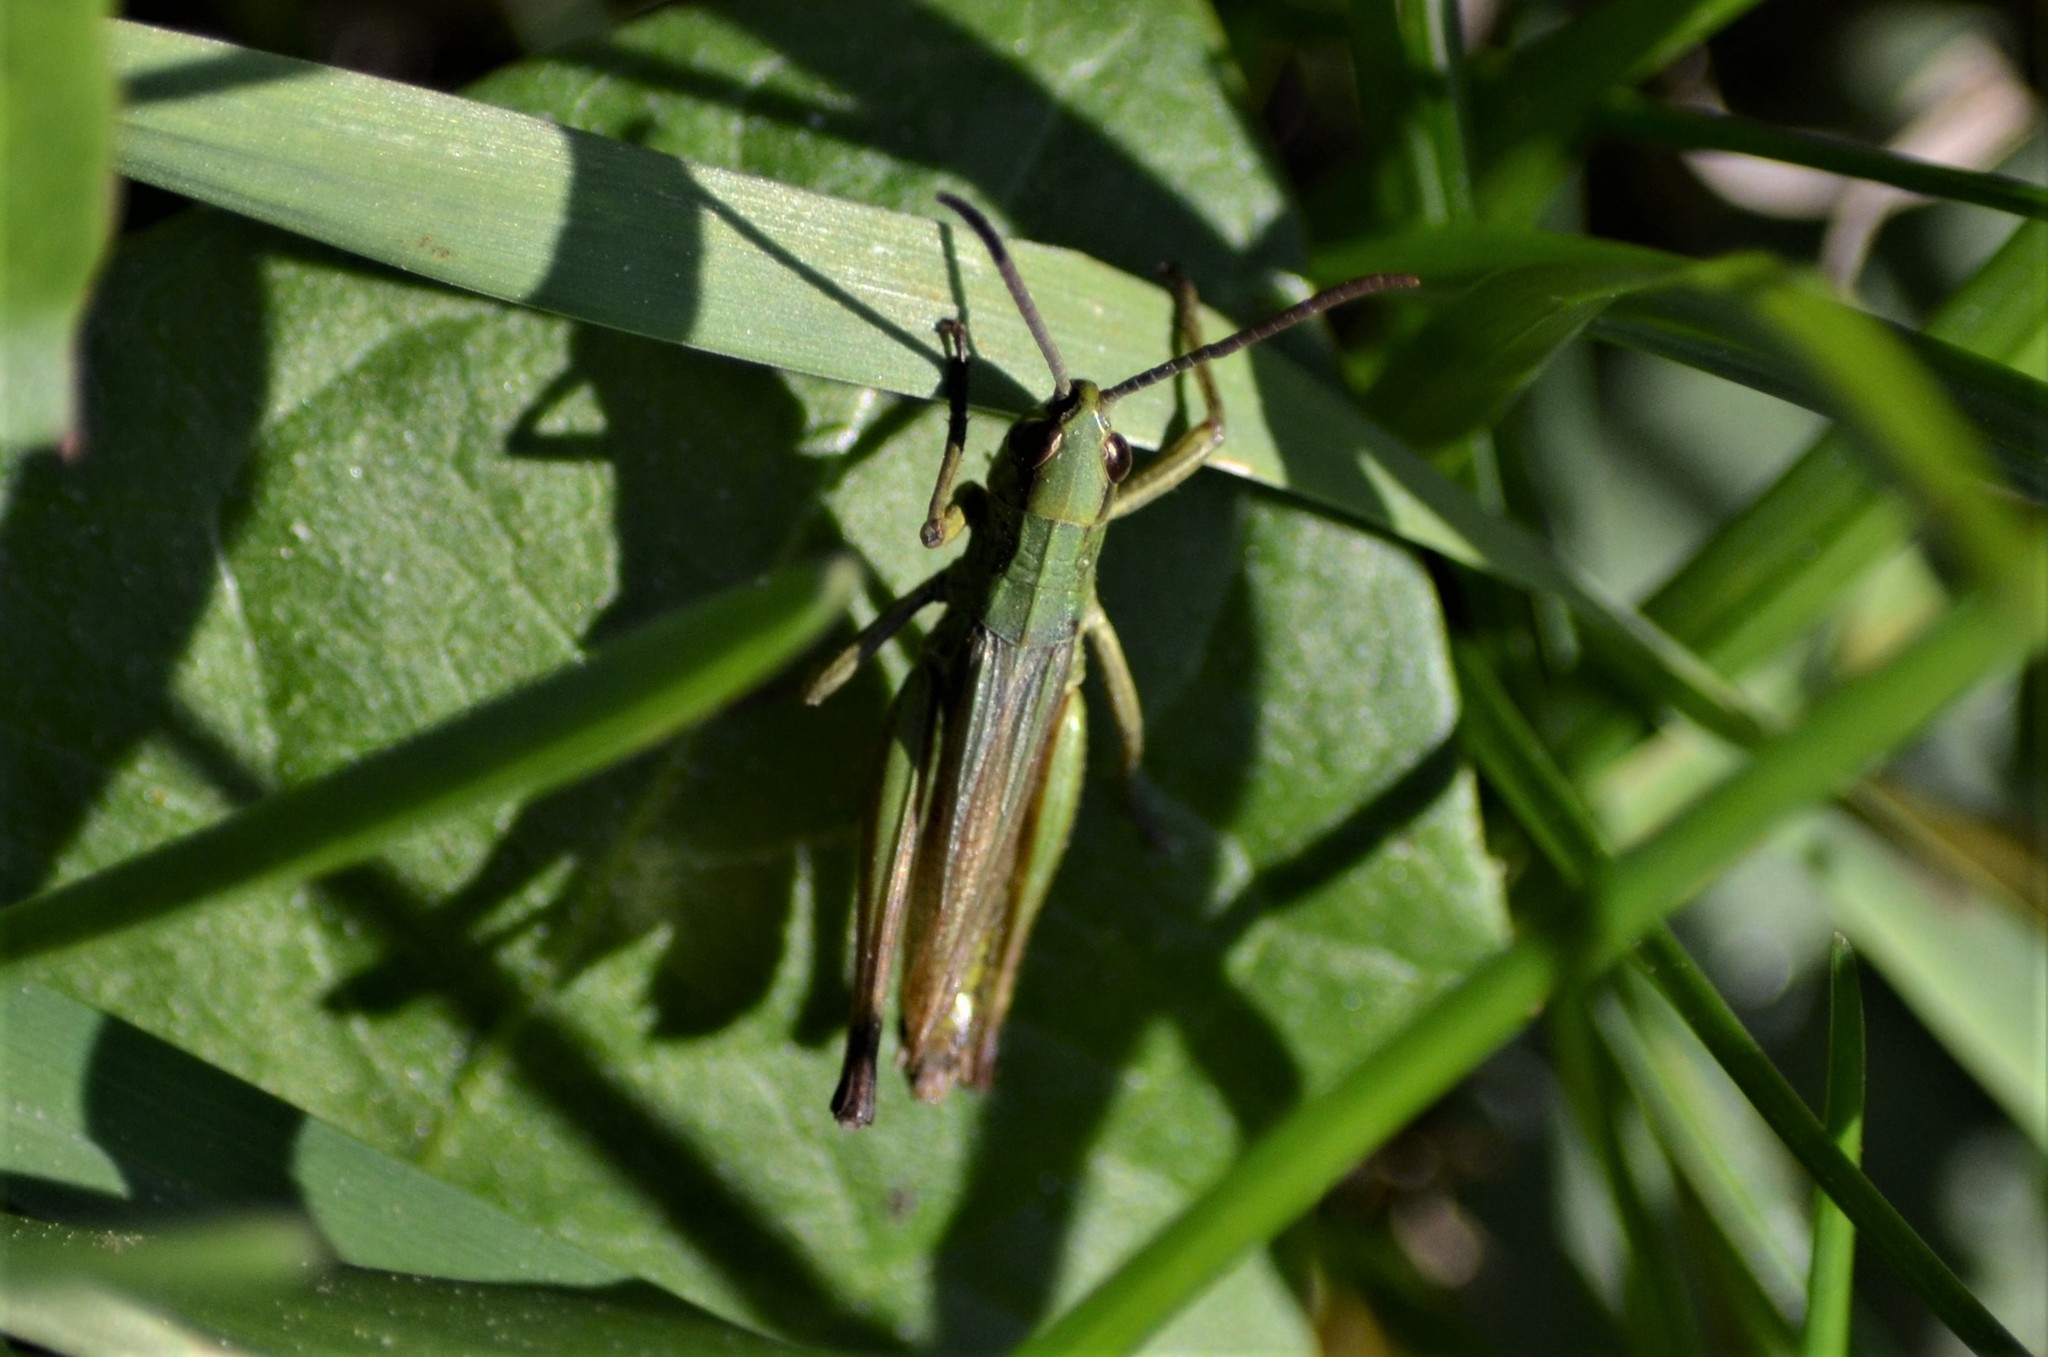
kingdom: Animalia
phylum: Arthropoda
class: Insecta
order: Orthoptera
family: Acrididae
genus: Pseudochorthippus
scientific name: Pseudochorthippus parallelus
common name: Meadow grasshopper
